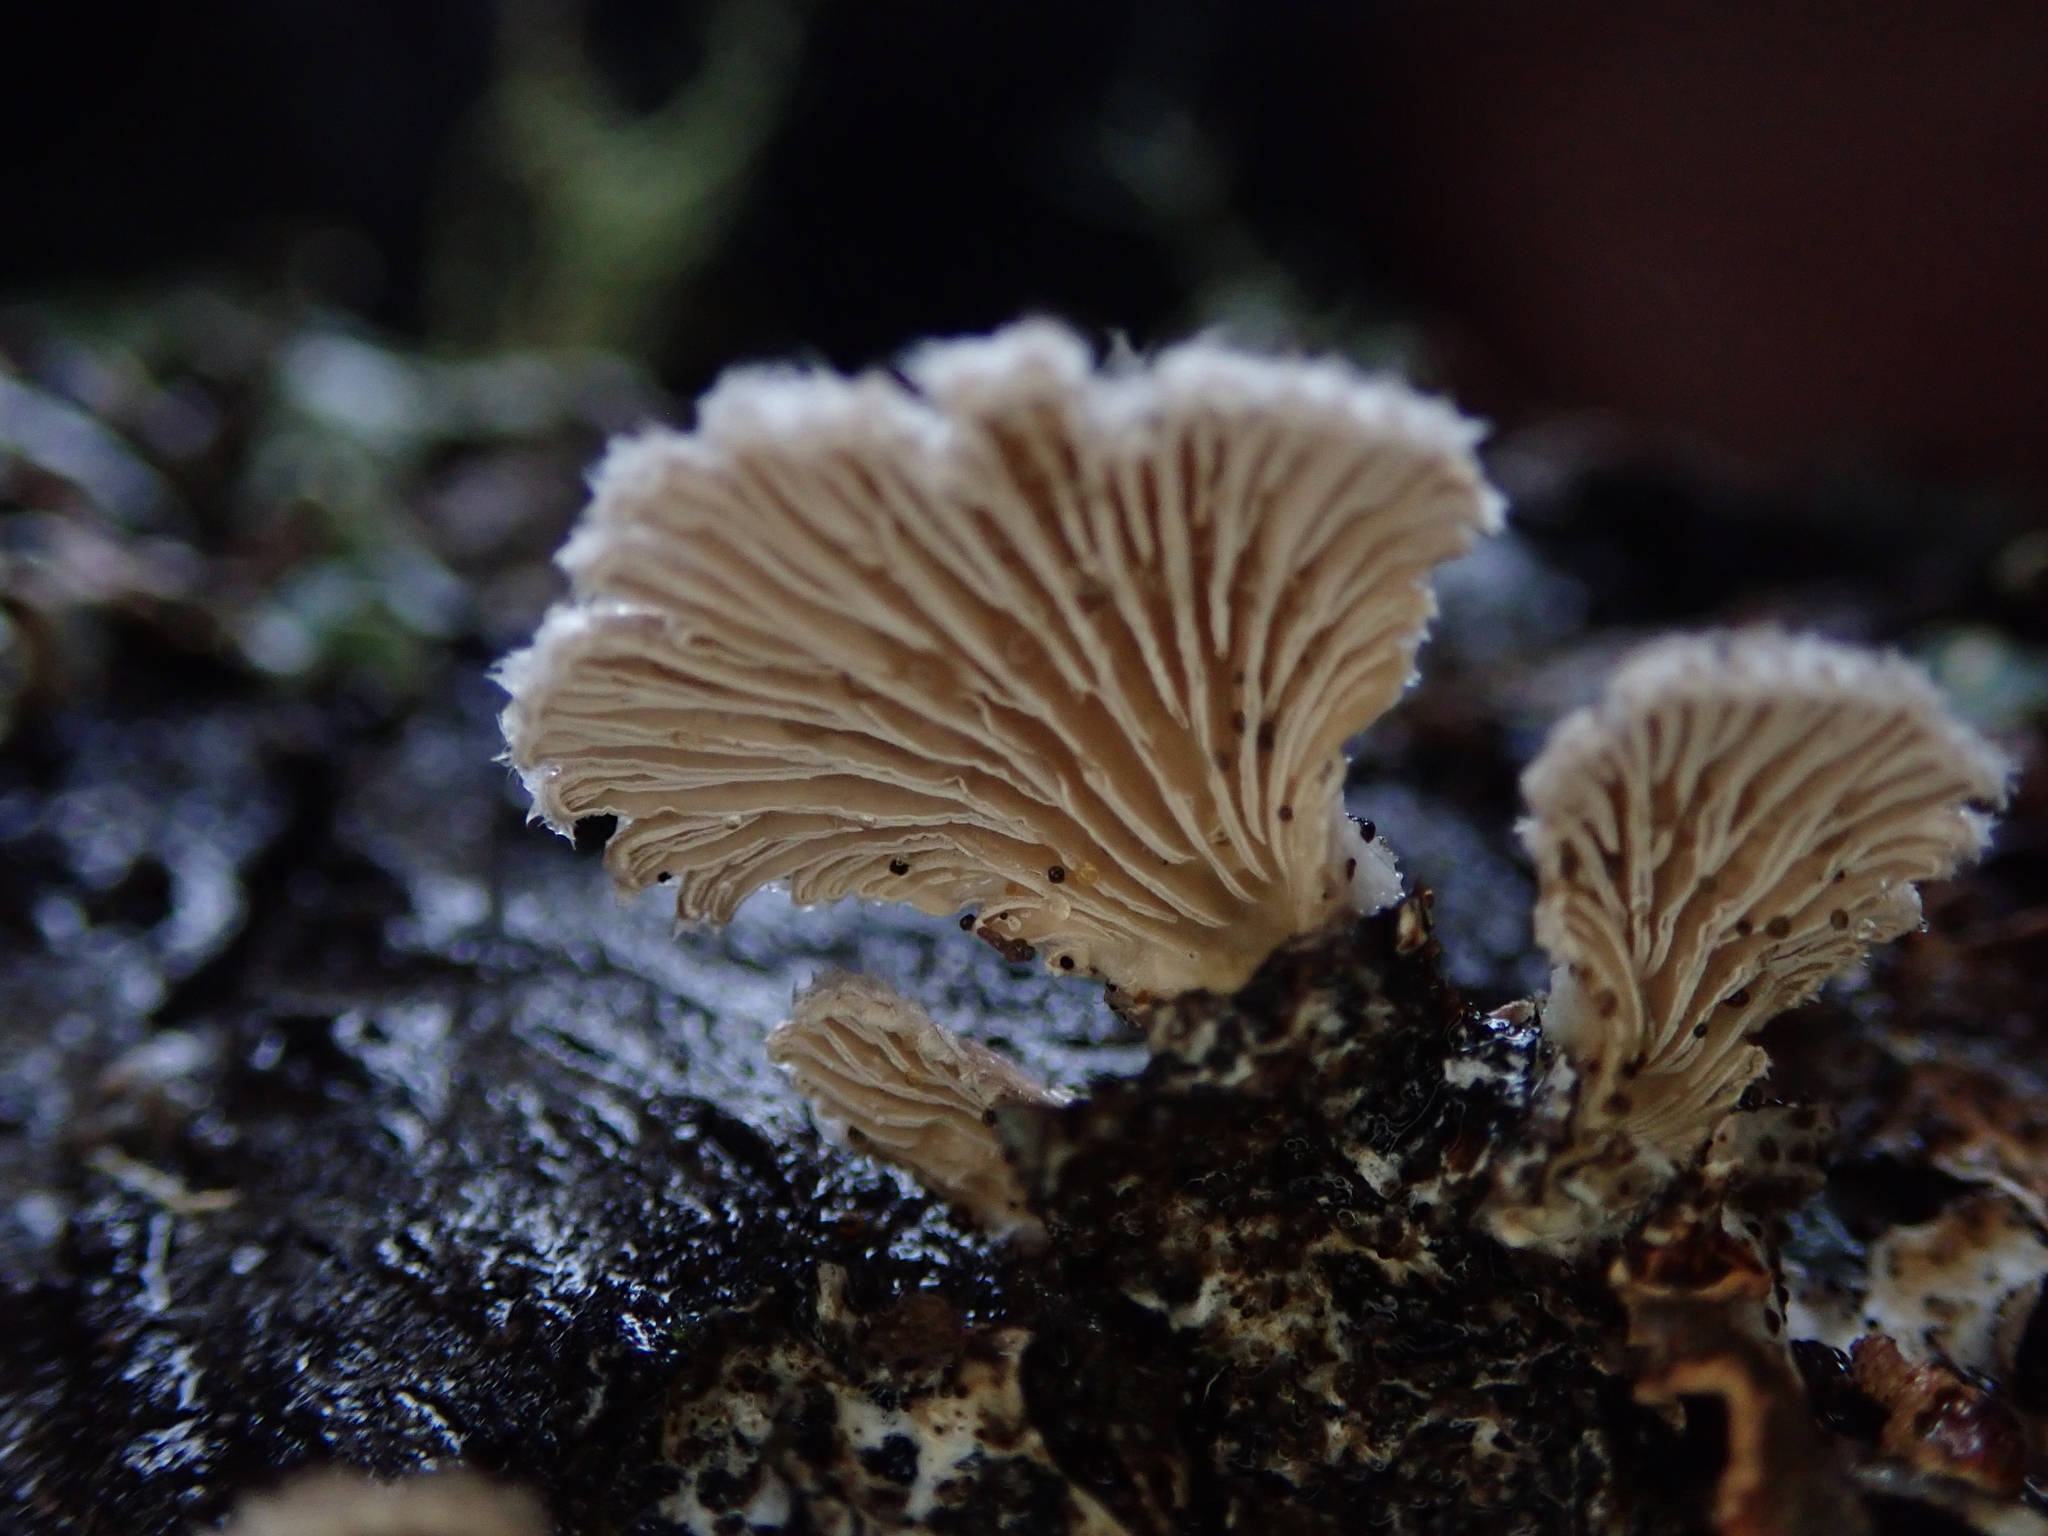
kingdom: Fungi
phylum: Basidiomycota
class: Agaricomycetes
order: Agaricales
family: Schizophyllaceae
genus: Schizophyllum
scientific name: Schizophyllum commune
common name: Common porecrust
